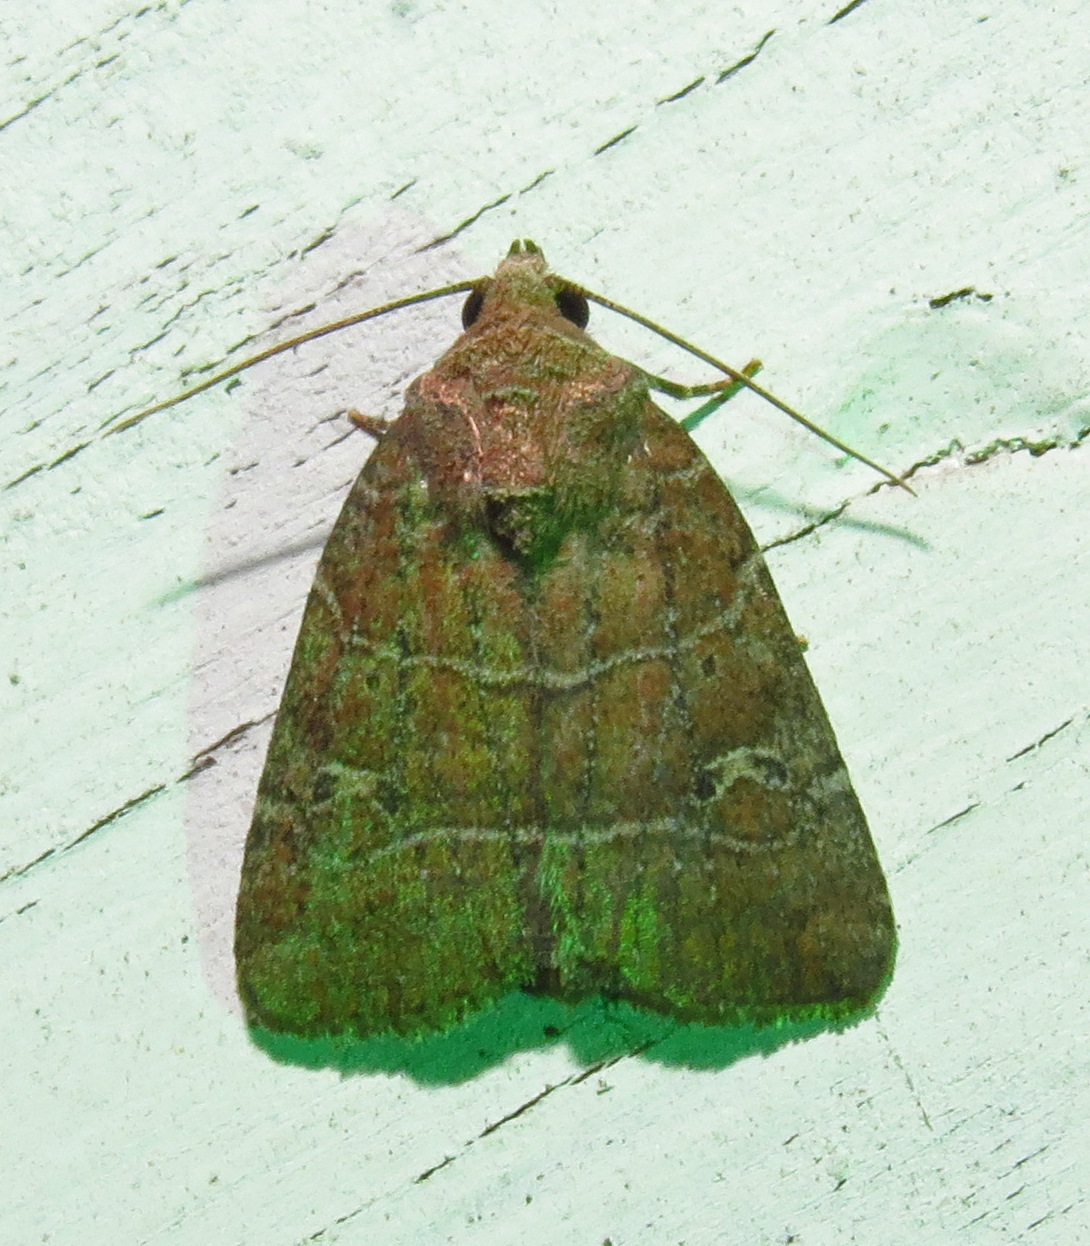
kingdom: Animalia
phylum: Arthropoda
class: Insecta
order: Lepidoptera
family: Noctuidae
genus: Elaphria
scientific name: Elaphria grata
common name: Grateful midget moth
